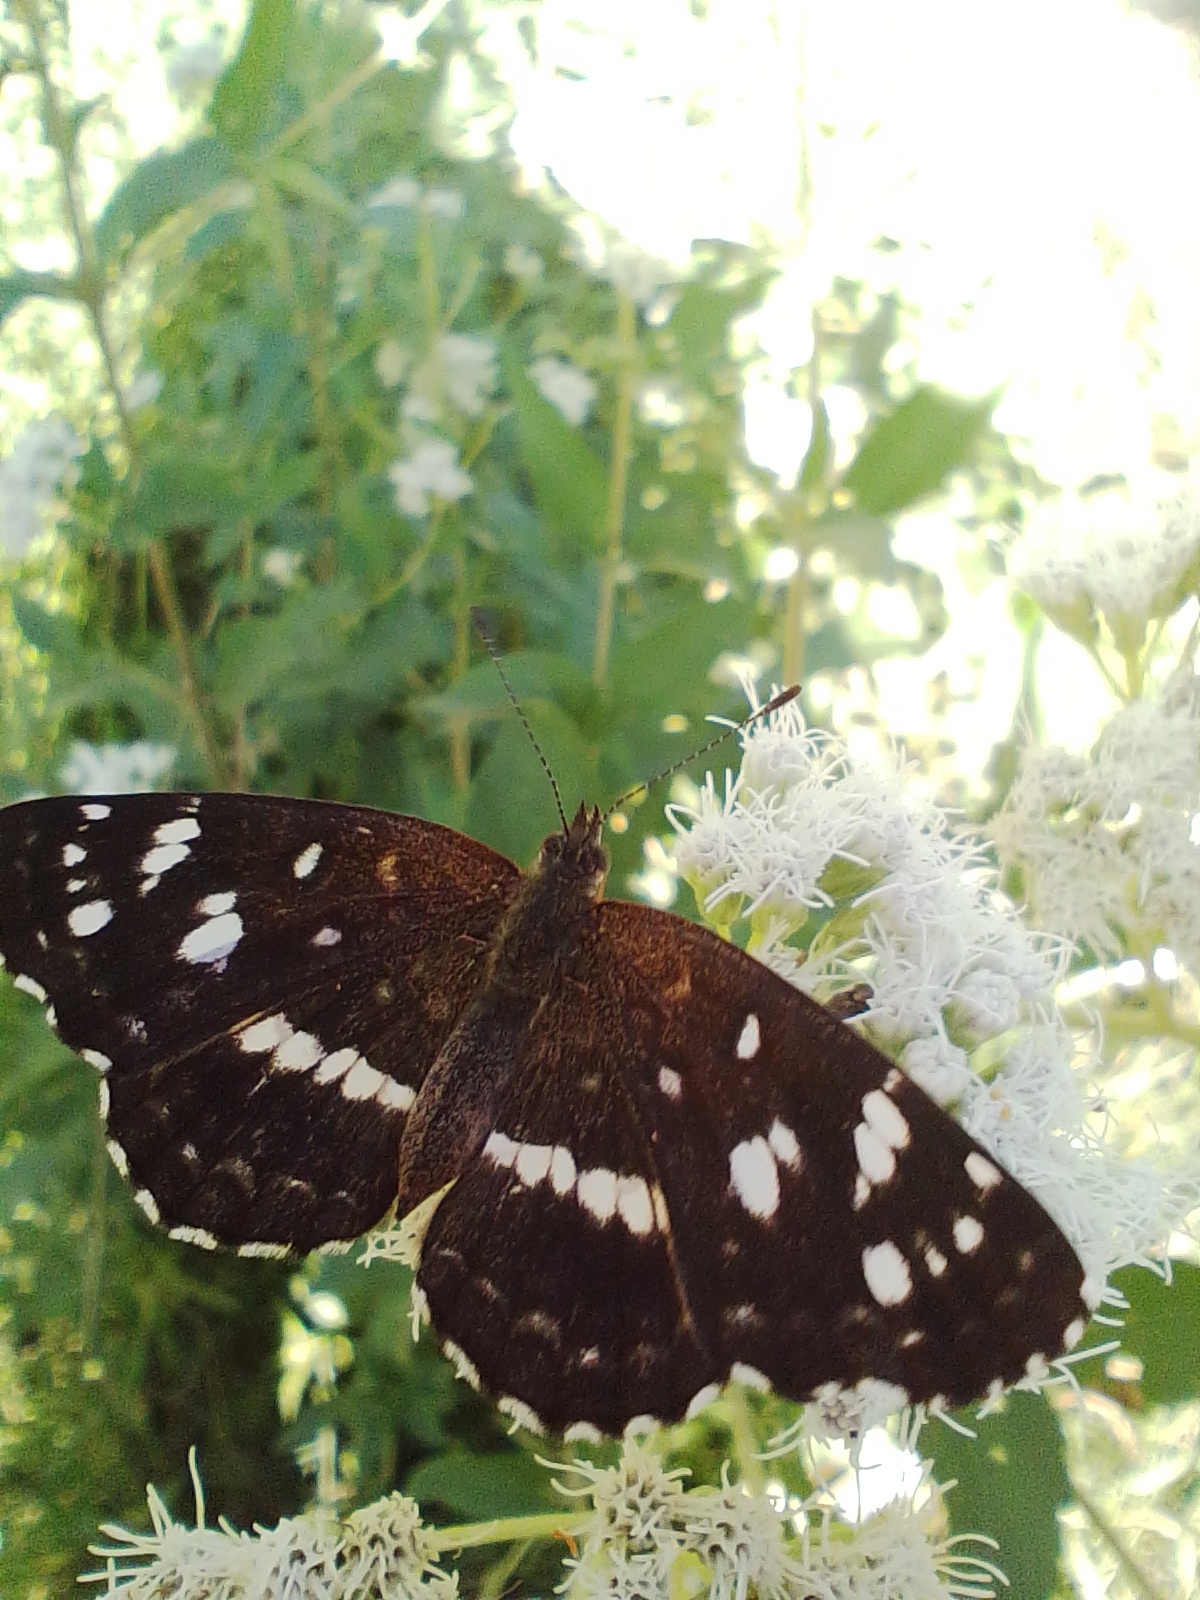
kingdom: Animalia
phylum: Arthropoda
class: Insecta
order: Lepidoptera
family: Nymphalidae
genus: Ortilia
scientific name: Ortilia ithra
